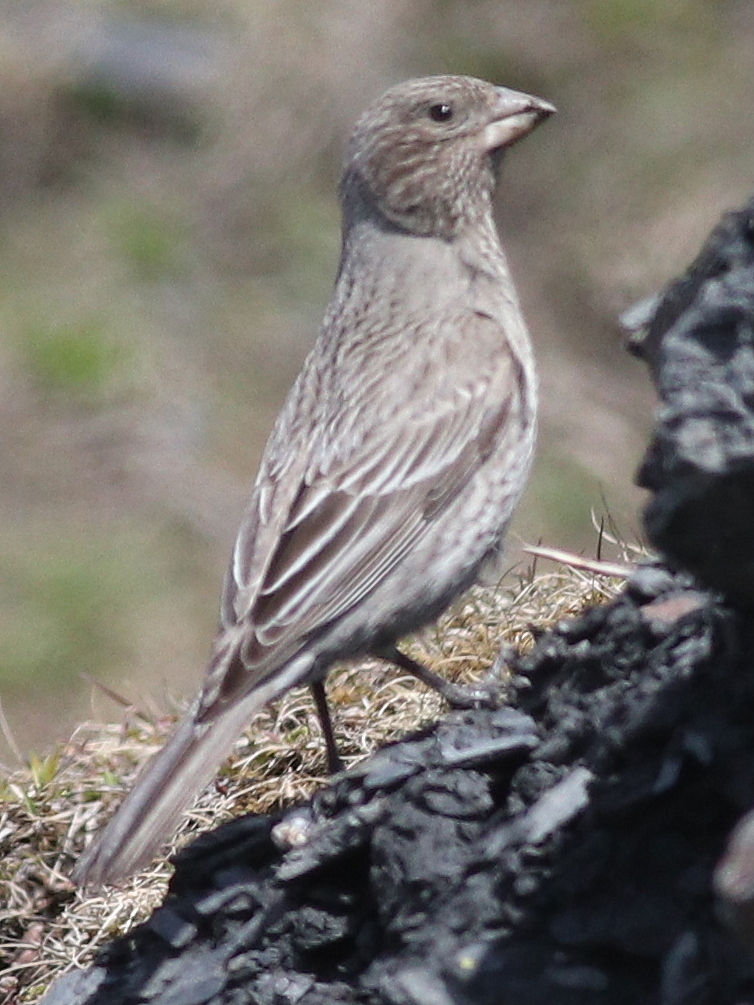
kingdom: Animalia
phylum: Chordata
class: Aves
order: Passeriformes
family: Fringillidae
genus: Carpodacus
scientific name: Carpodacus rubicilla
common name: Great rosefinch
